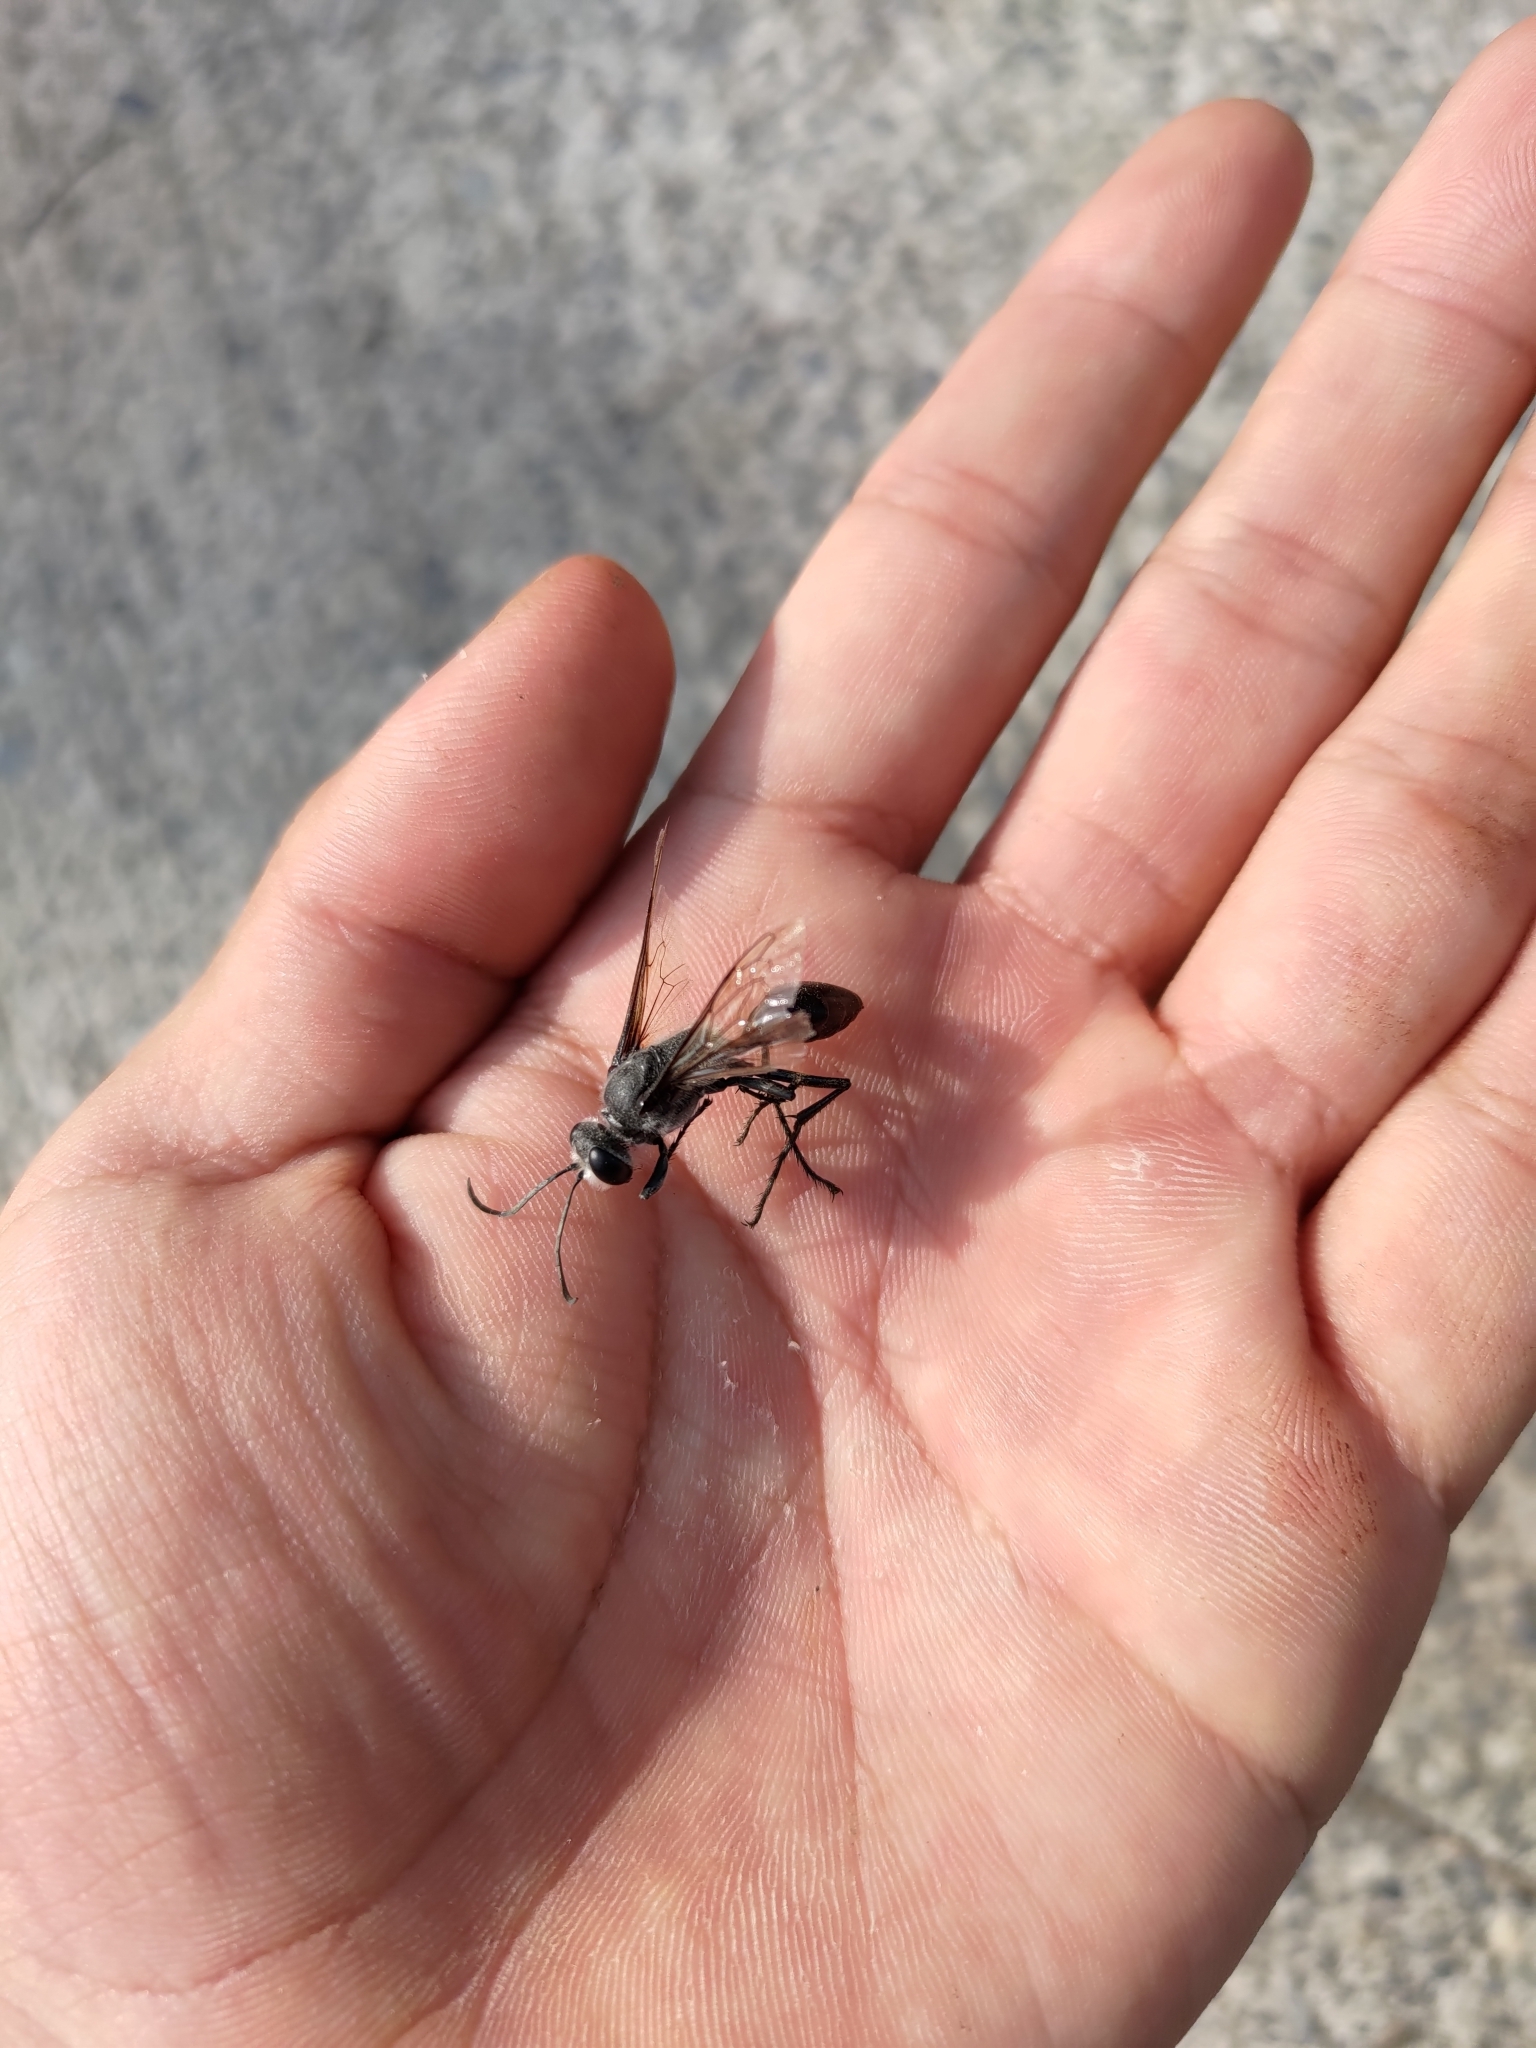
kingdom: Animalia
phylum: Arthropoda
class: Insecta
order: Hymenoptera
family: Sphecidae
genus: Sphex
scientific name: Sphex argentatus
